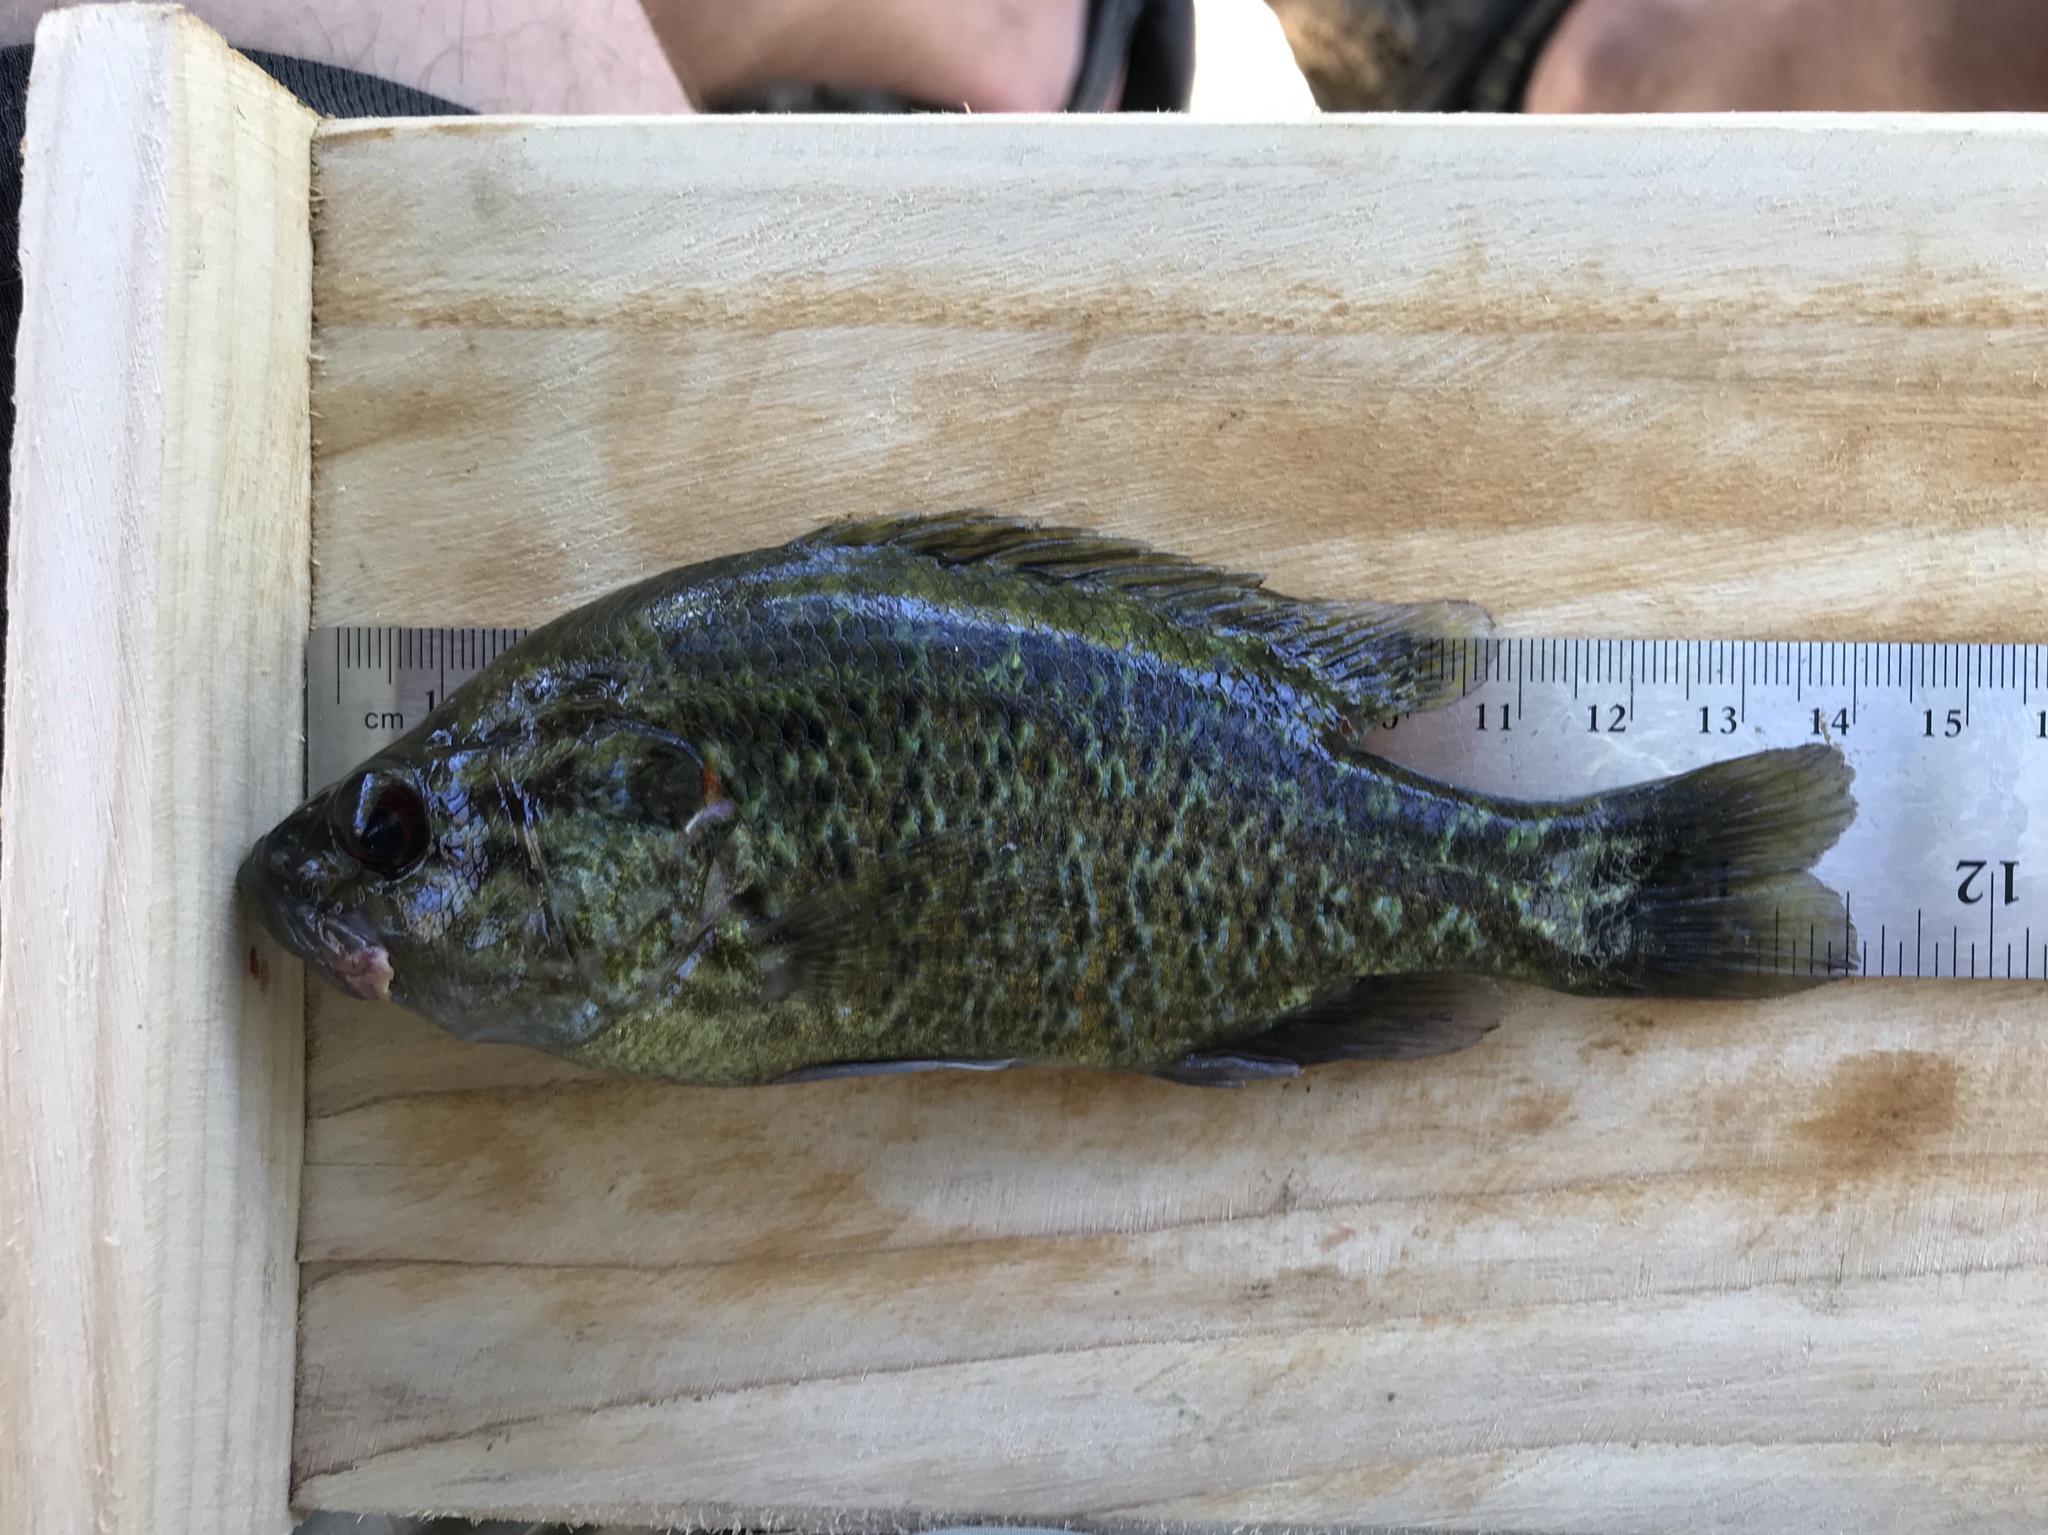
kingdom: Animalia
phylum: Chordata
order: Perciformes
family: Centrarchidae
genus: Lepomis
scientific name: Lepomis gulosus
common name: Warmouth
